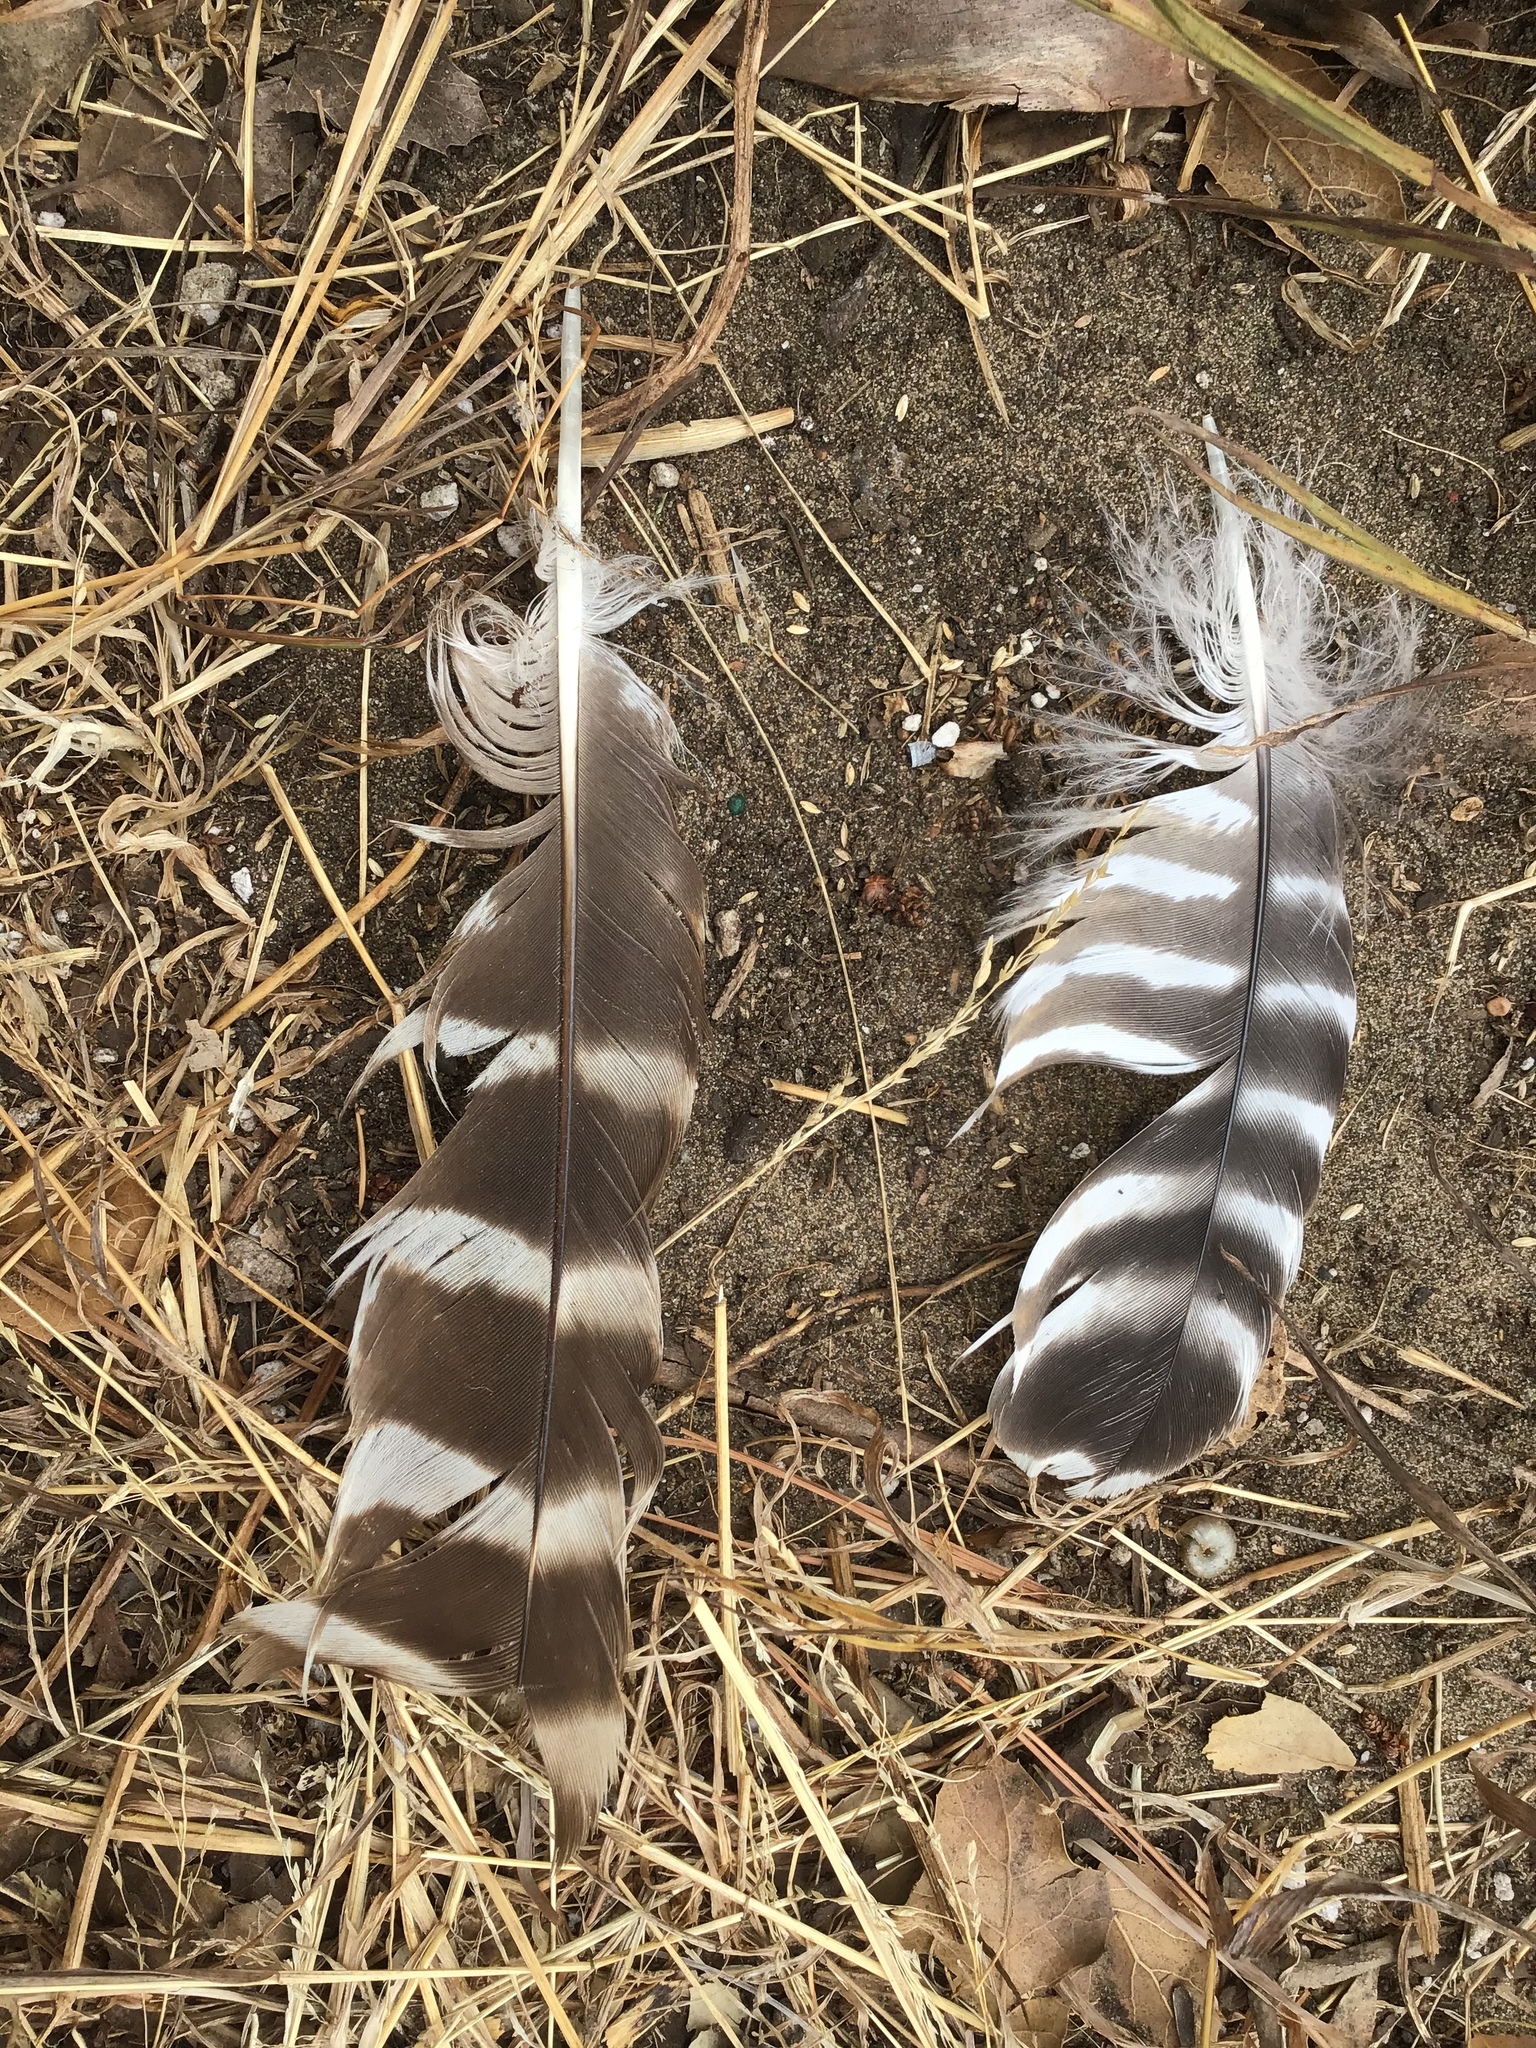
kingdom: Animalia
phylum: Chordata
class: Aves
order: Accipitriformes
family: Accipitridae
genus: Buteo
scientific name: Buteo lineatus
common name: Red-shouldered hawk
